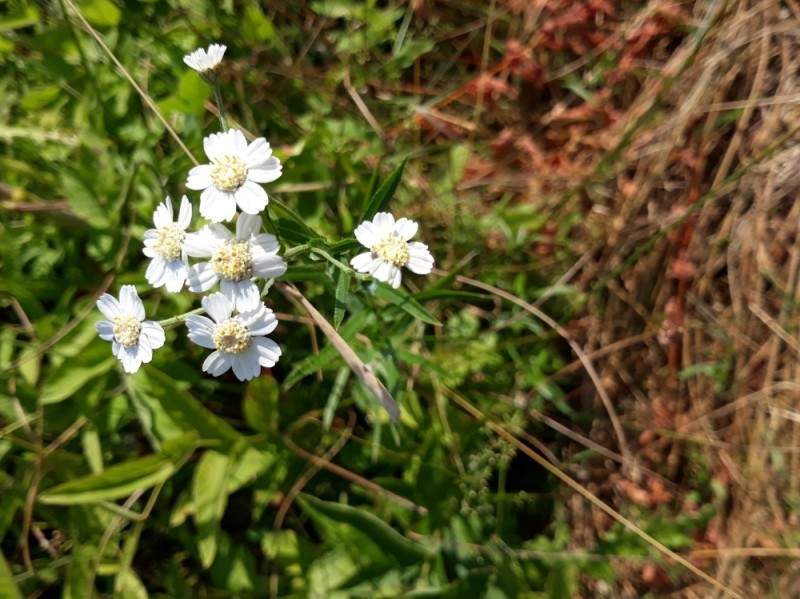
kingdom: Plantae
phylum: Tracheophyta
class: Magnoliopsida
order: Asterales
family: Asteraceae
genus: Achillea
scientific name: Achillea ptarmica
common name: Sneezeweed
